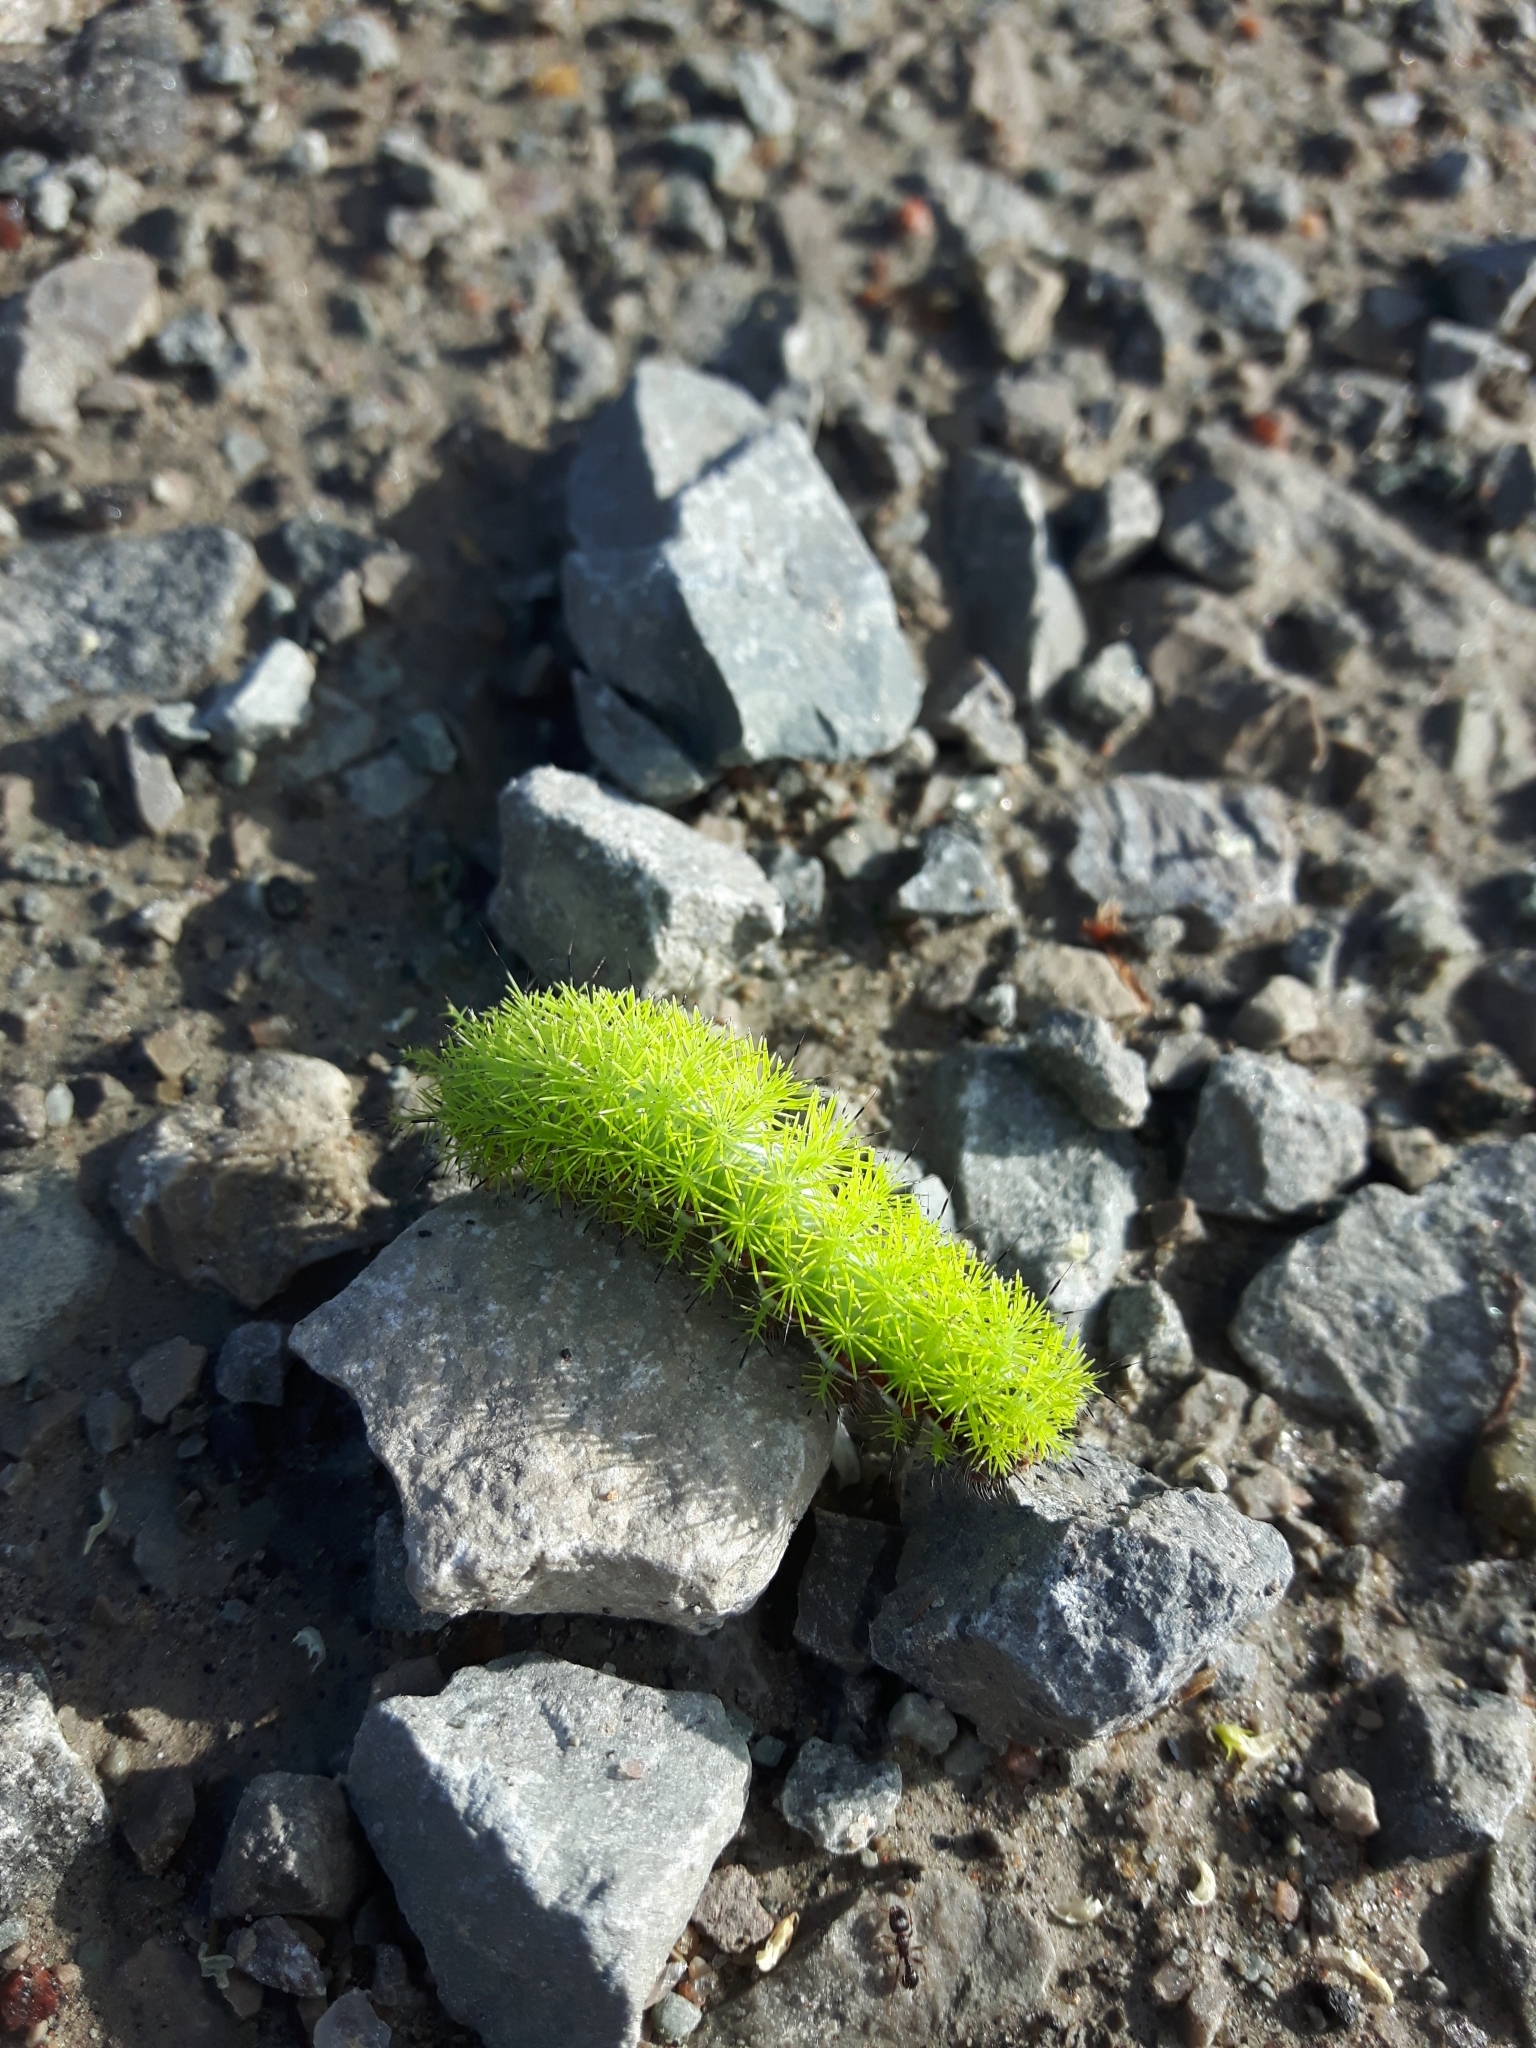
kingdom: Animalia
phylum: Arthropoda
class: Insecta
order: Lepidoptera
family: Saturniidae
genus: Automeris
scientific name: Automeris io
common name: Io moth
